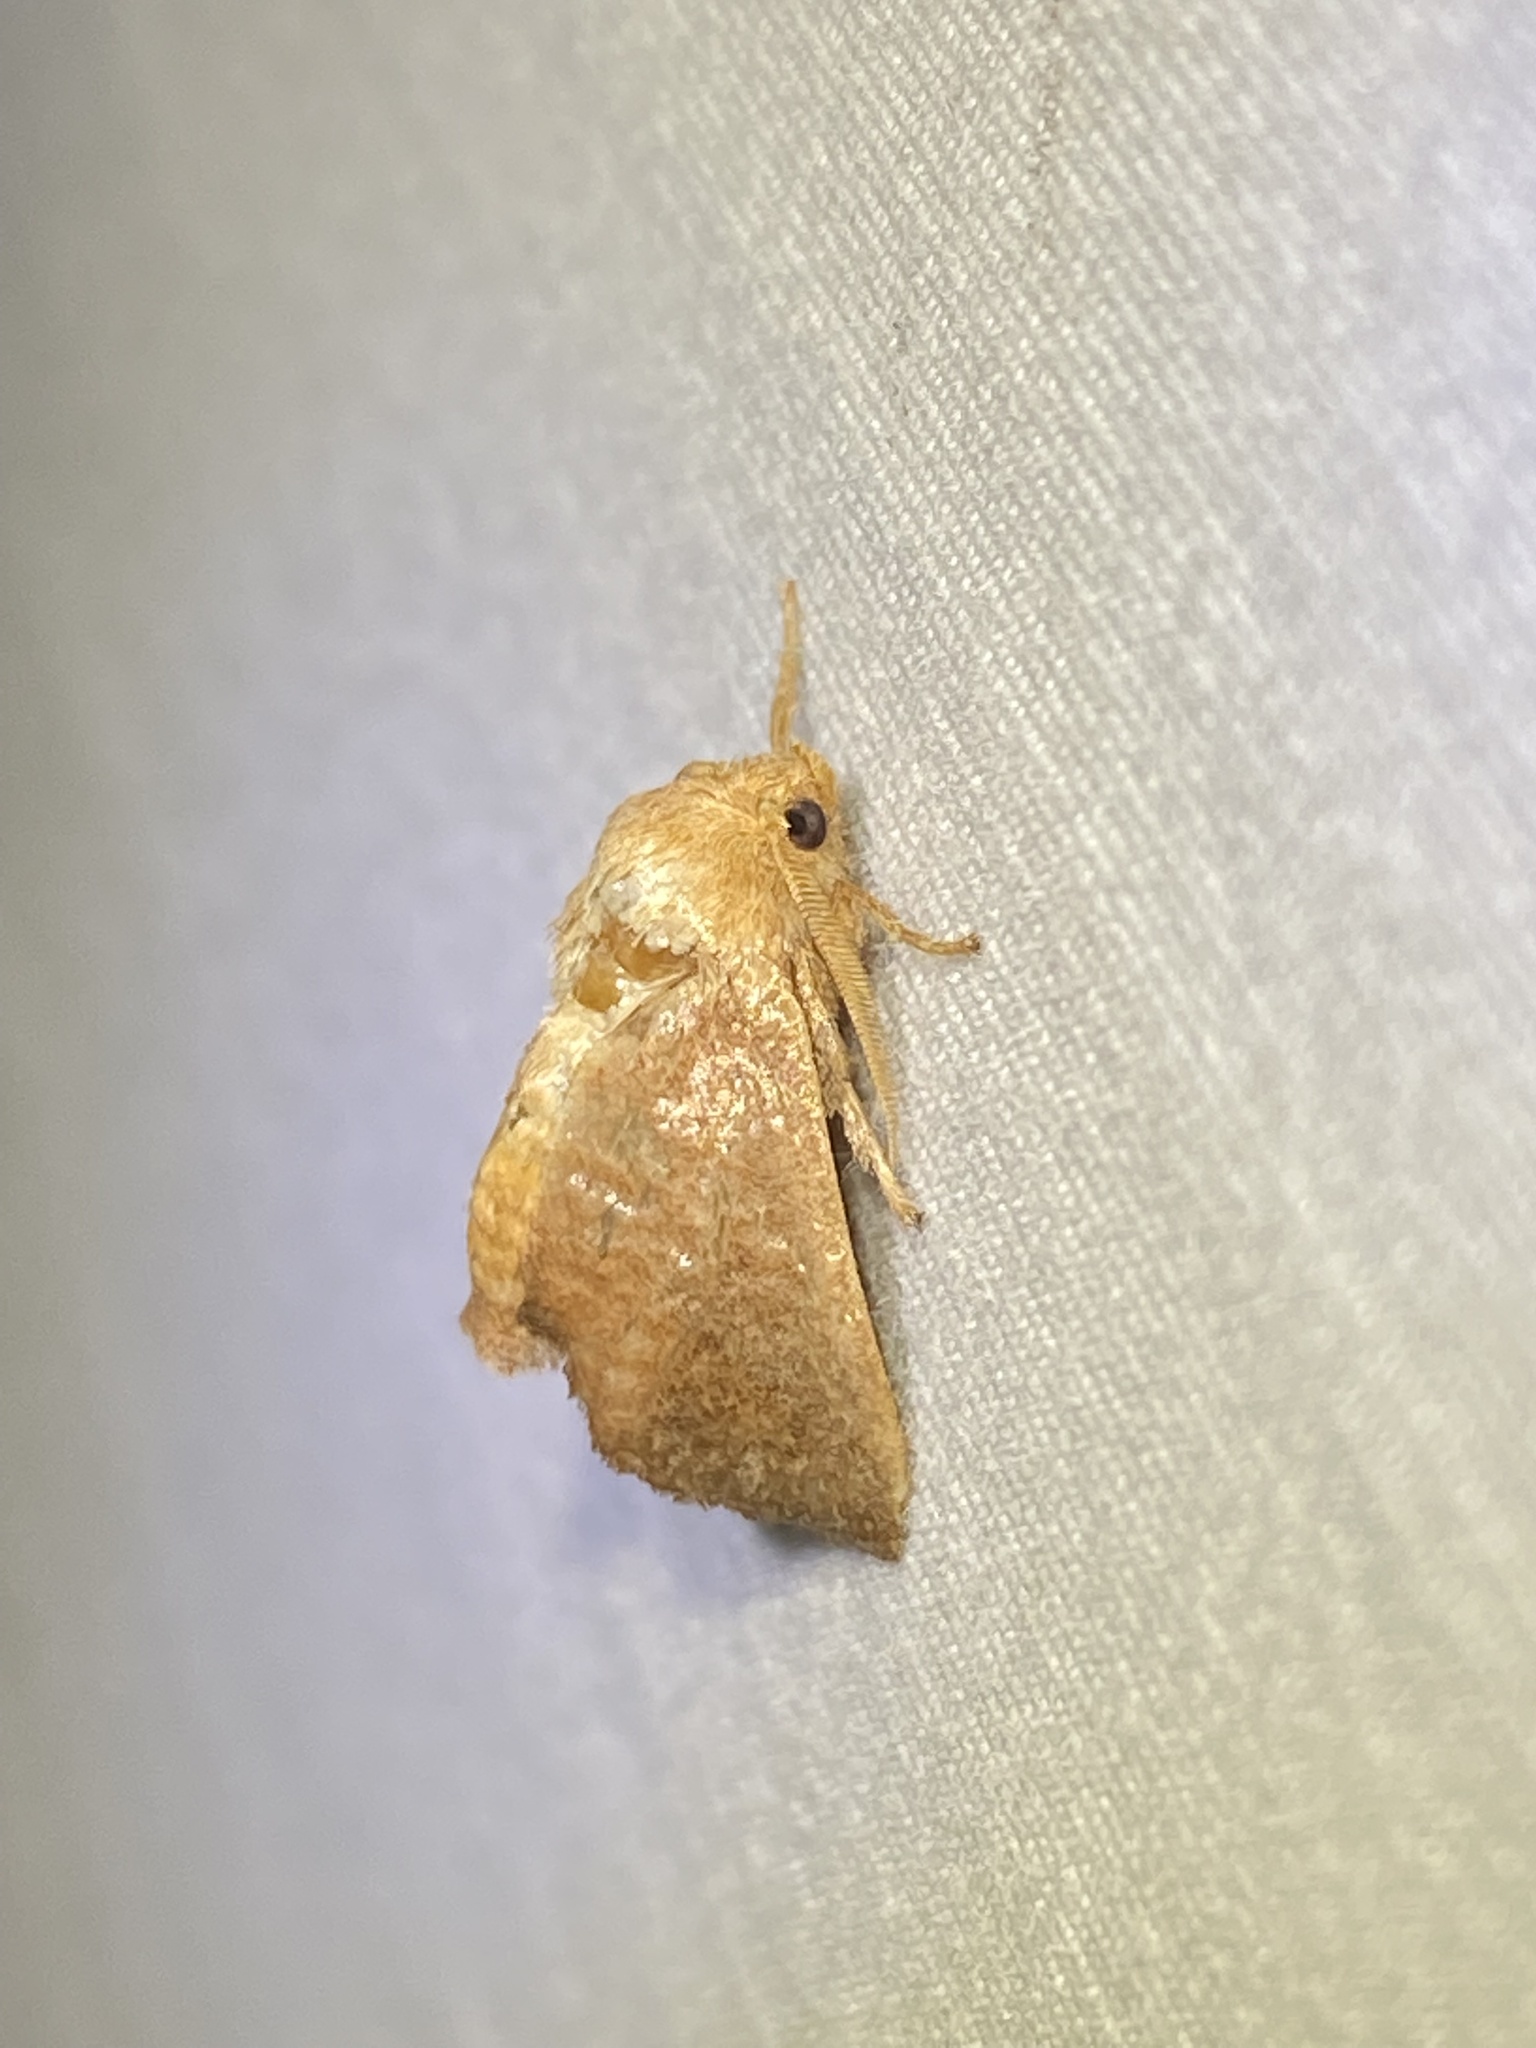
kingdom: Animalia
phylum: Arthropoda
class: Insecta
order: Lepidoptera
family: Limacodidae
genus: Isa
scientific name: Isa textula
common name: Crowned slug moth
